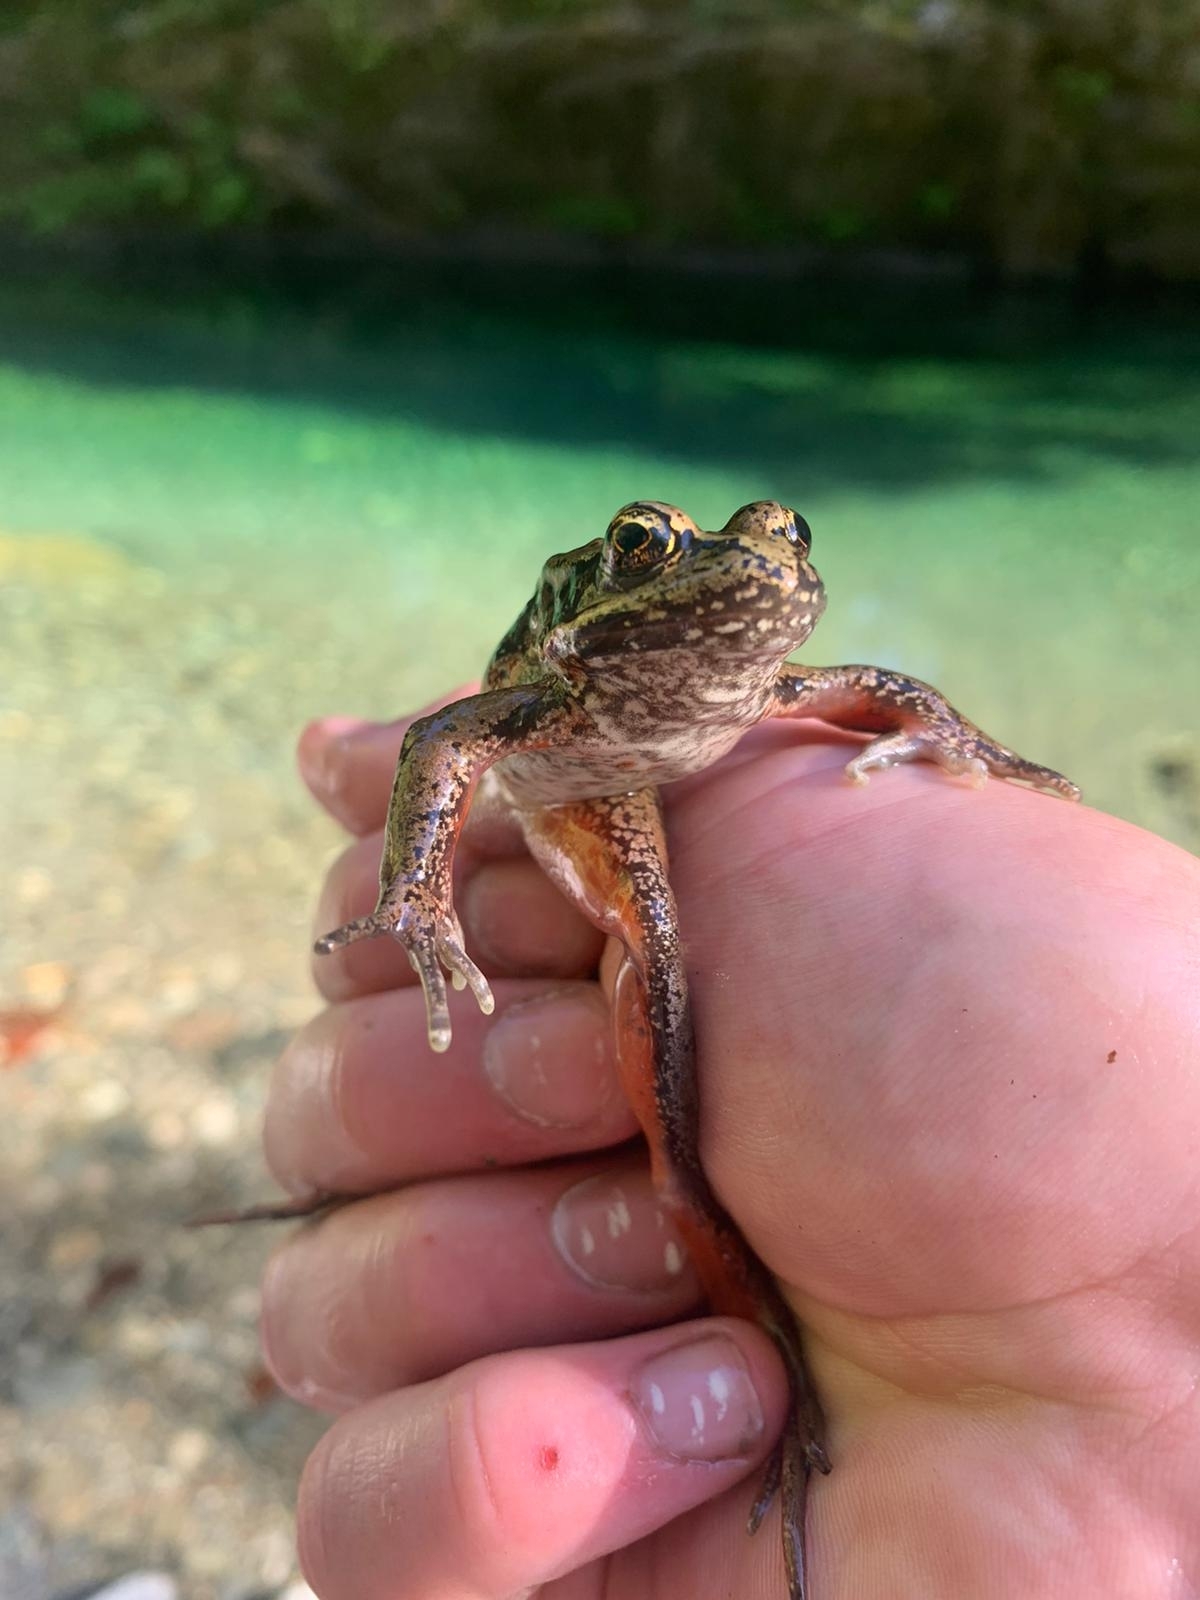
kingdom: Animalia
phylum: Chordata
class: Amphibia
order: Anura
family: Ranidae
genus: Rana
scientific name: Rana aurora
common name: Red-legged frog
